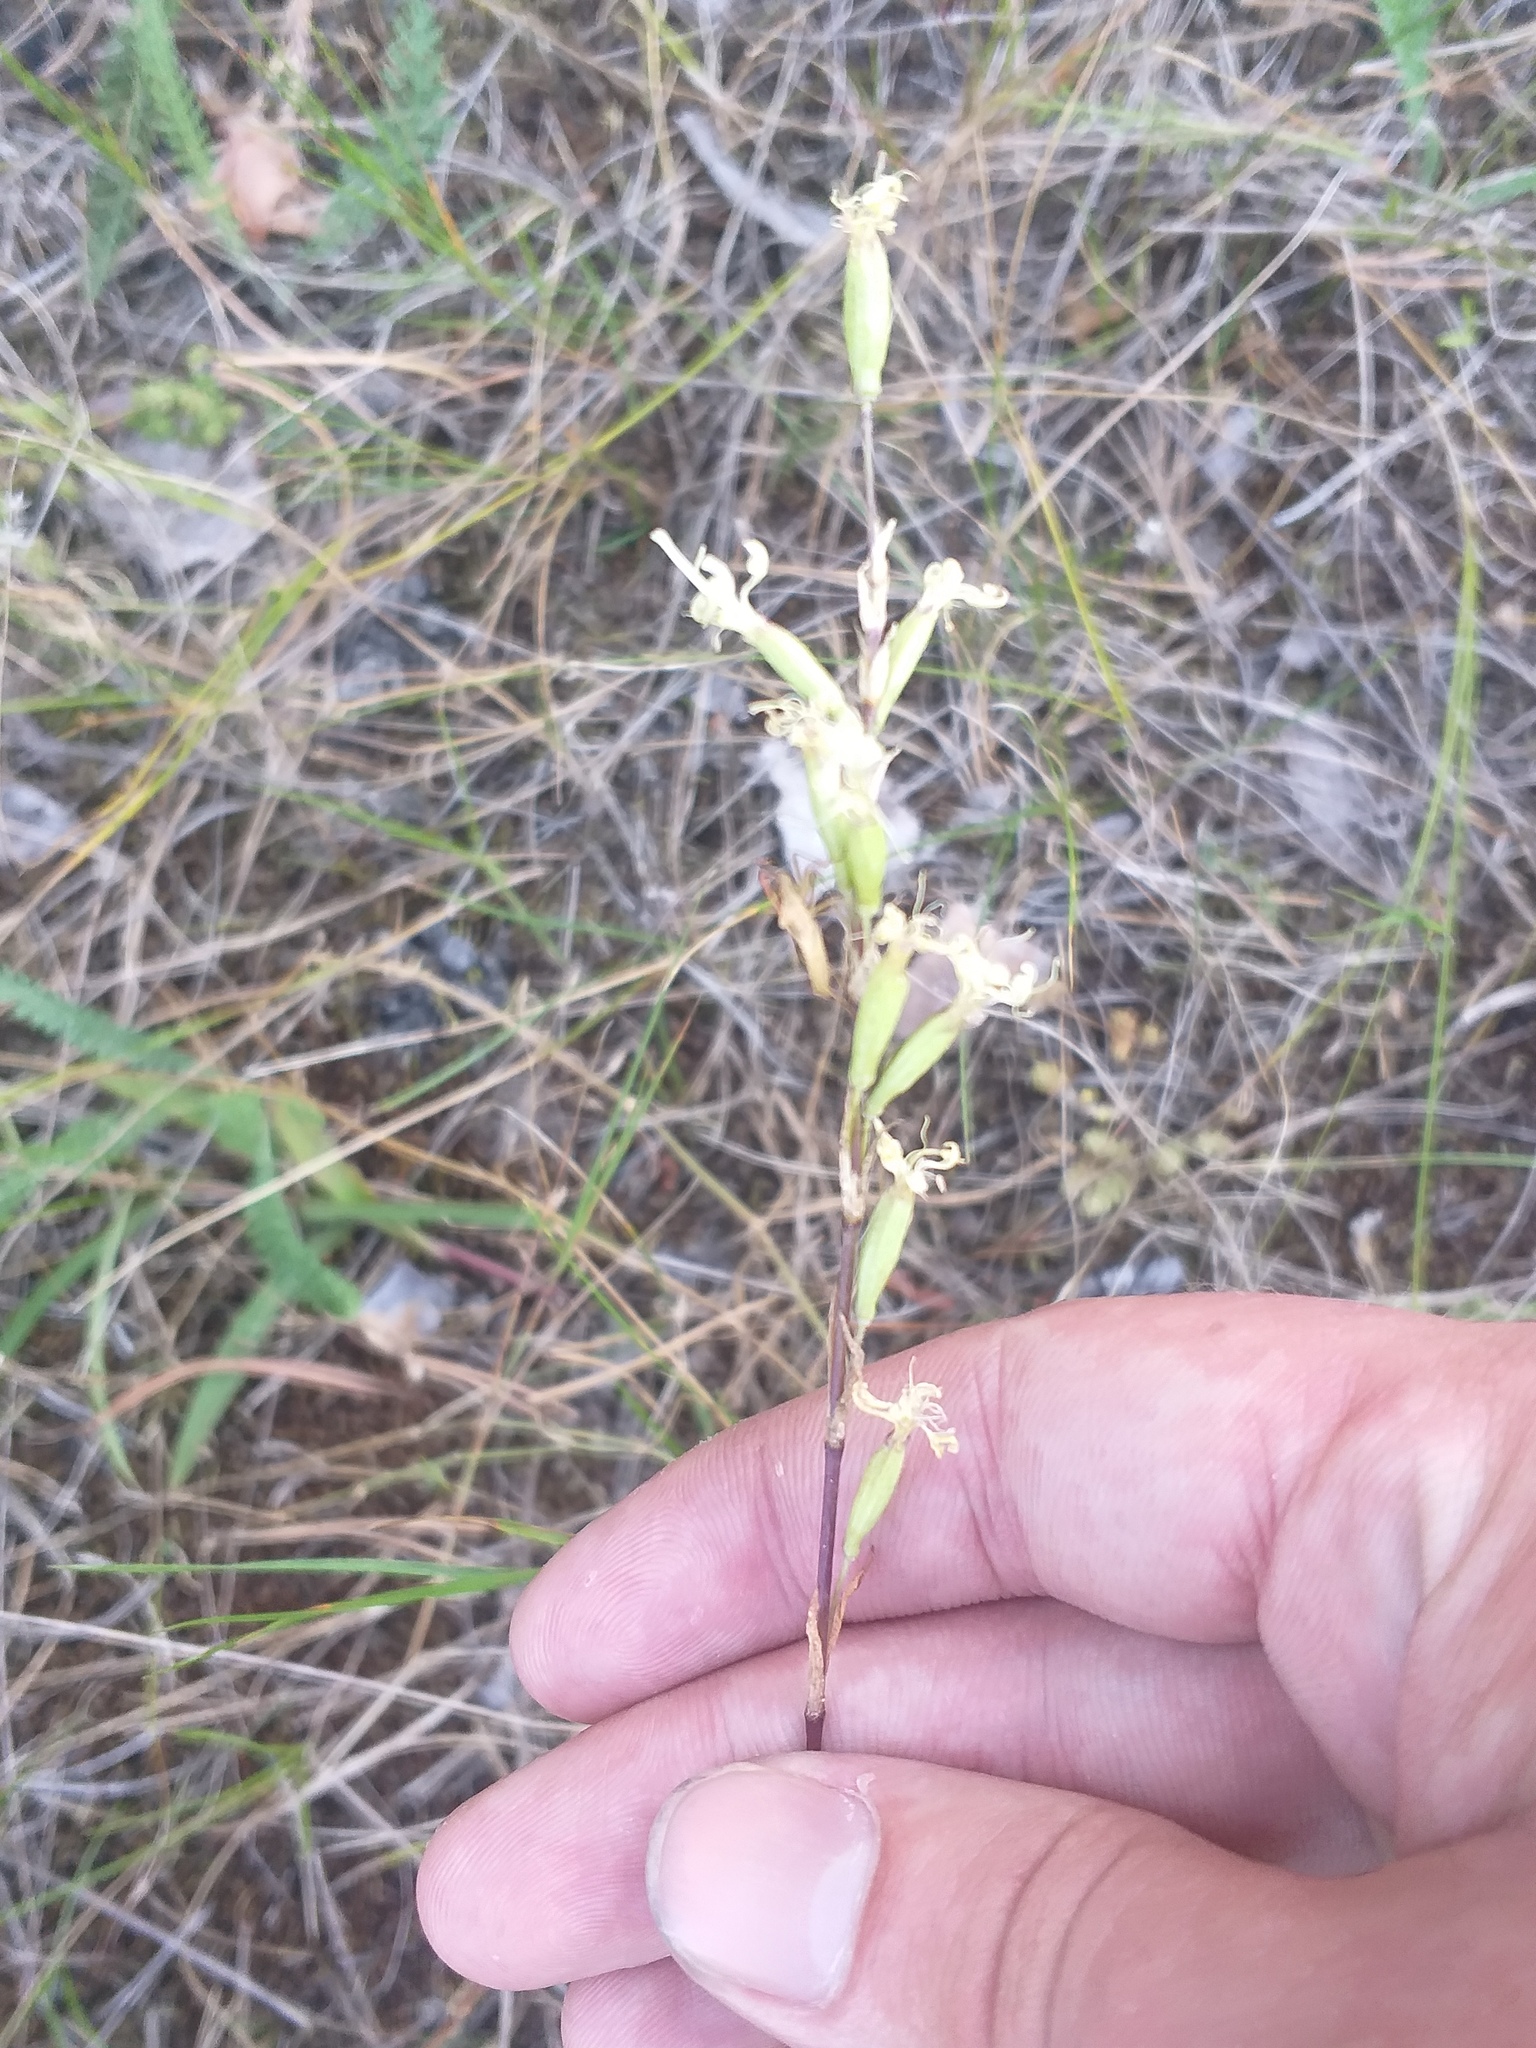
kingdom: Plantae
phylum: Tracheophyta
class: Magnoliopsida
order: Caryophyllales
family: Caryophyllaceae
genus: Silene
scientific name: Silene tatarica
